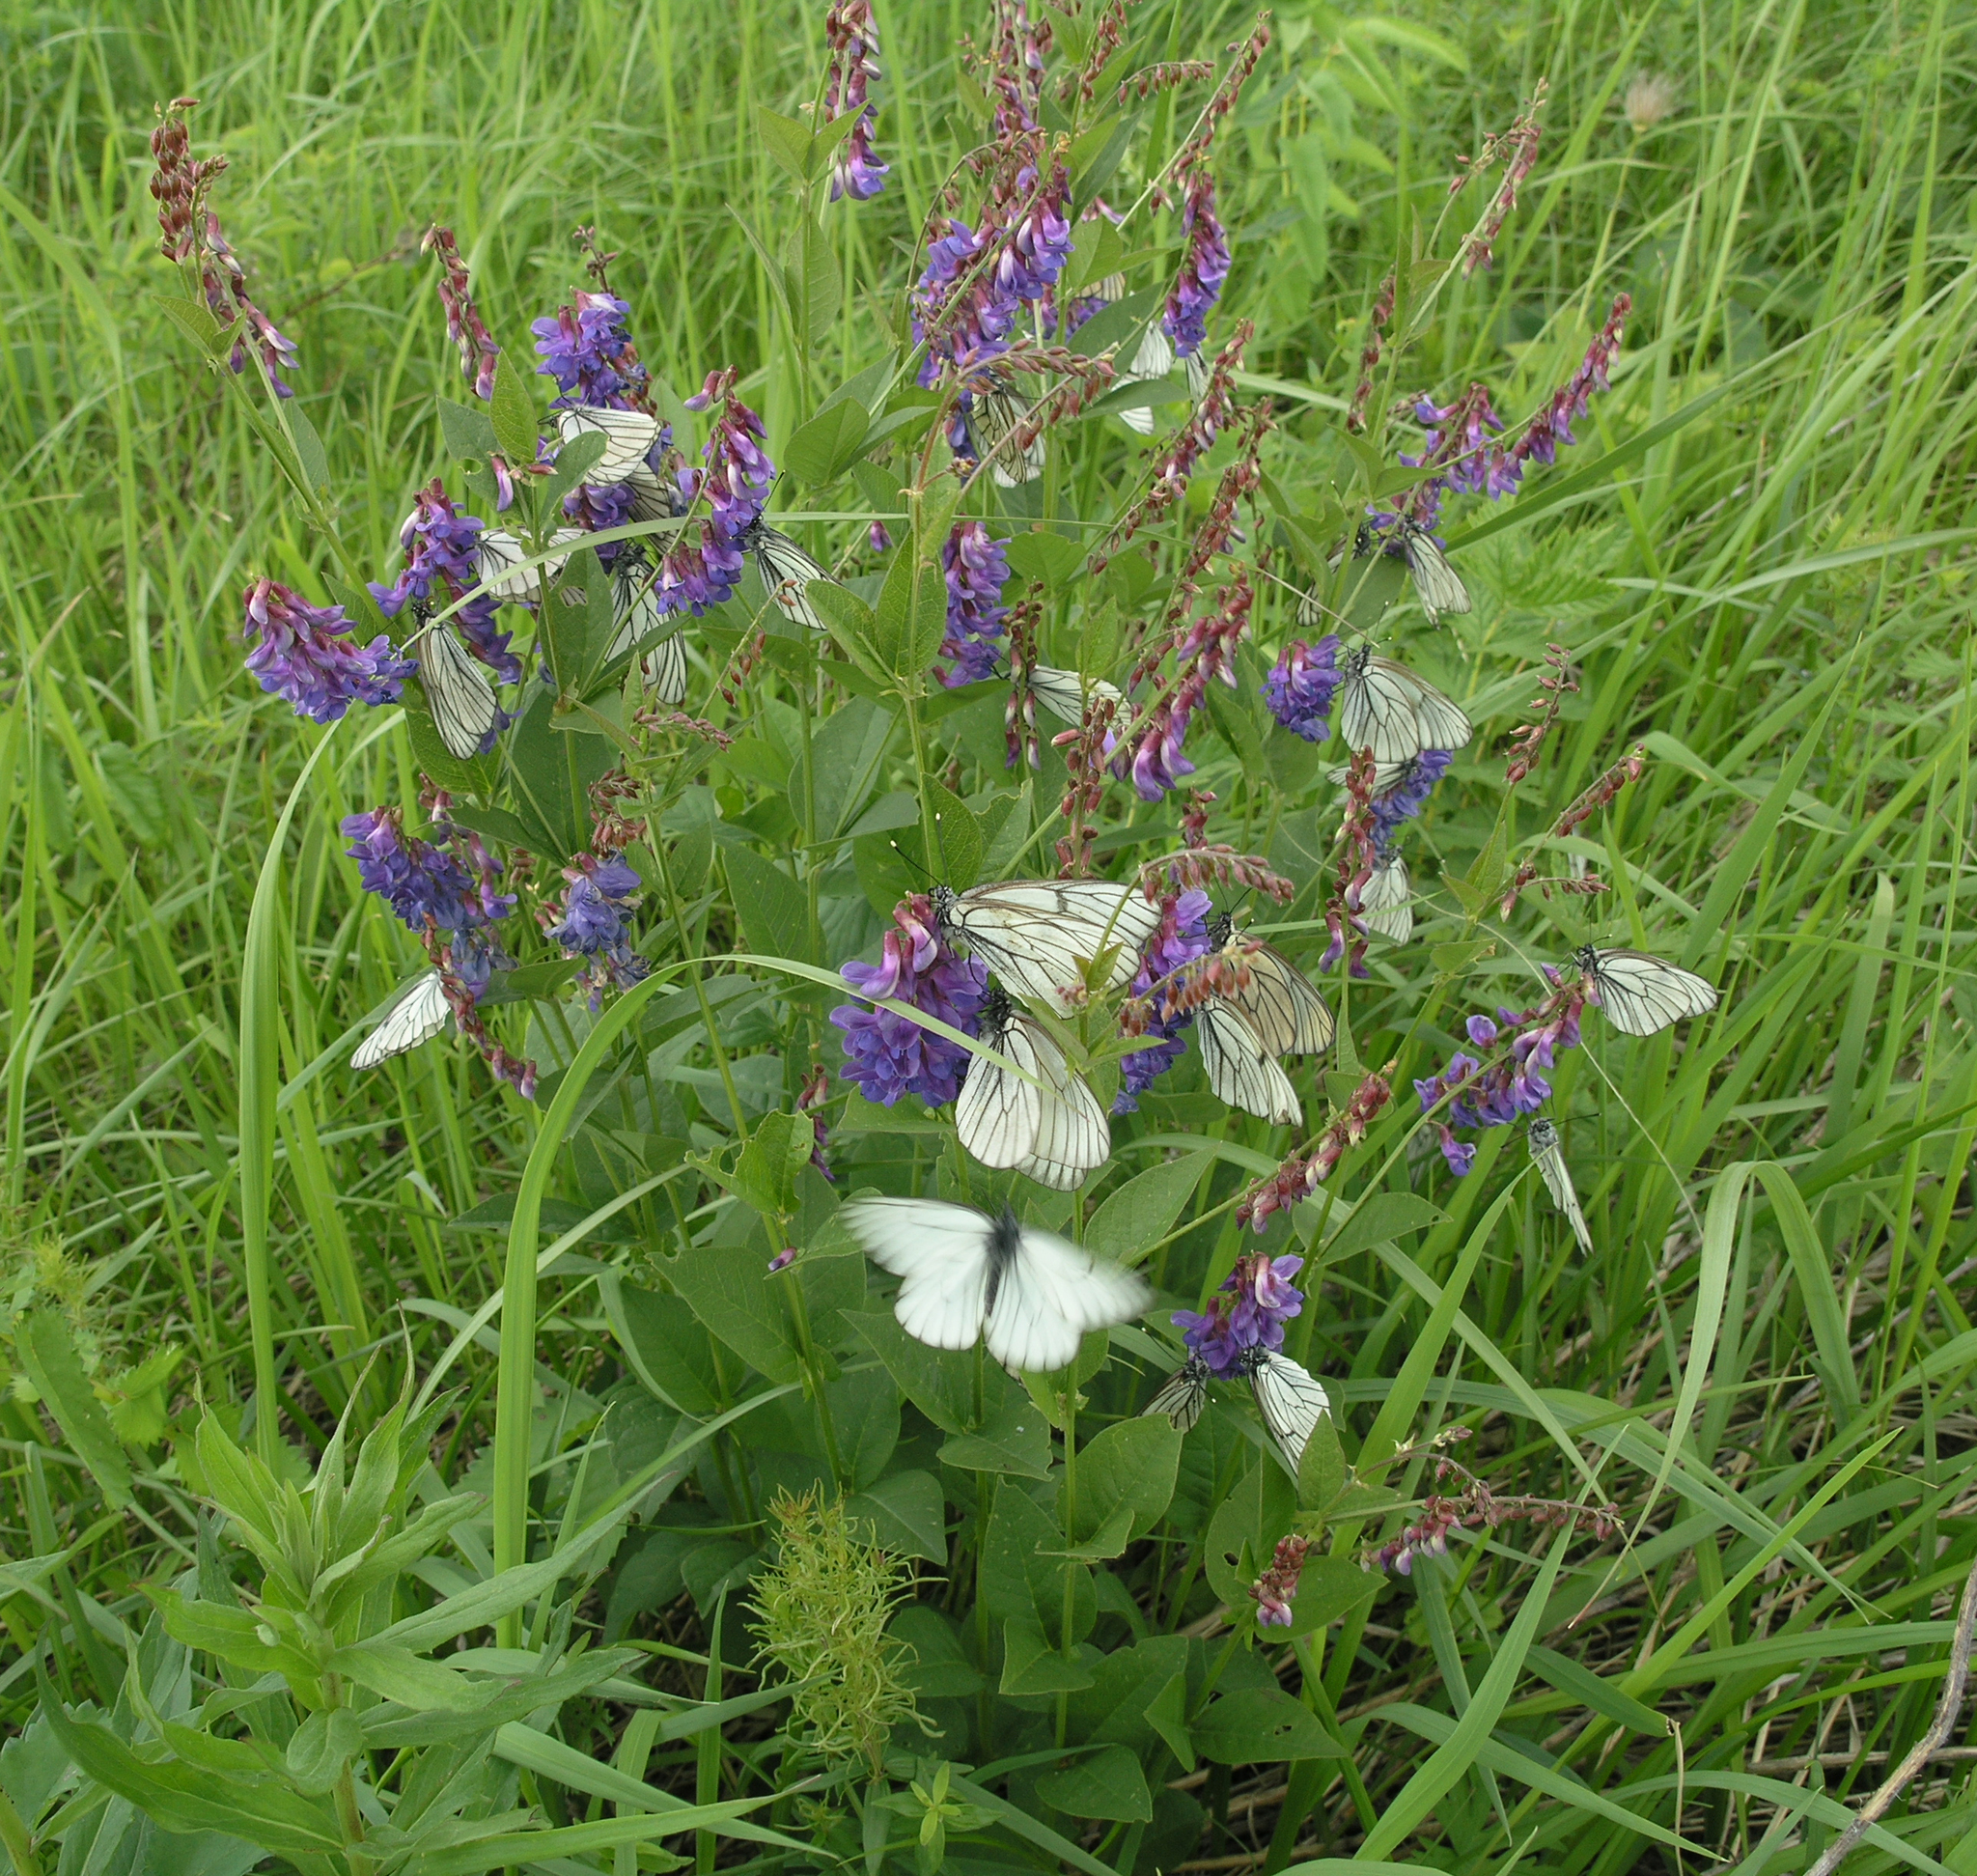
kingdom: Plantae
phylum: Tracheophyta
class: Magnoliopsida
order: Fabales
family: Fabaceae
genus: Vicia
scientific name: Vicia unijuga
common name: Two-leaf vetch
